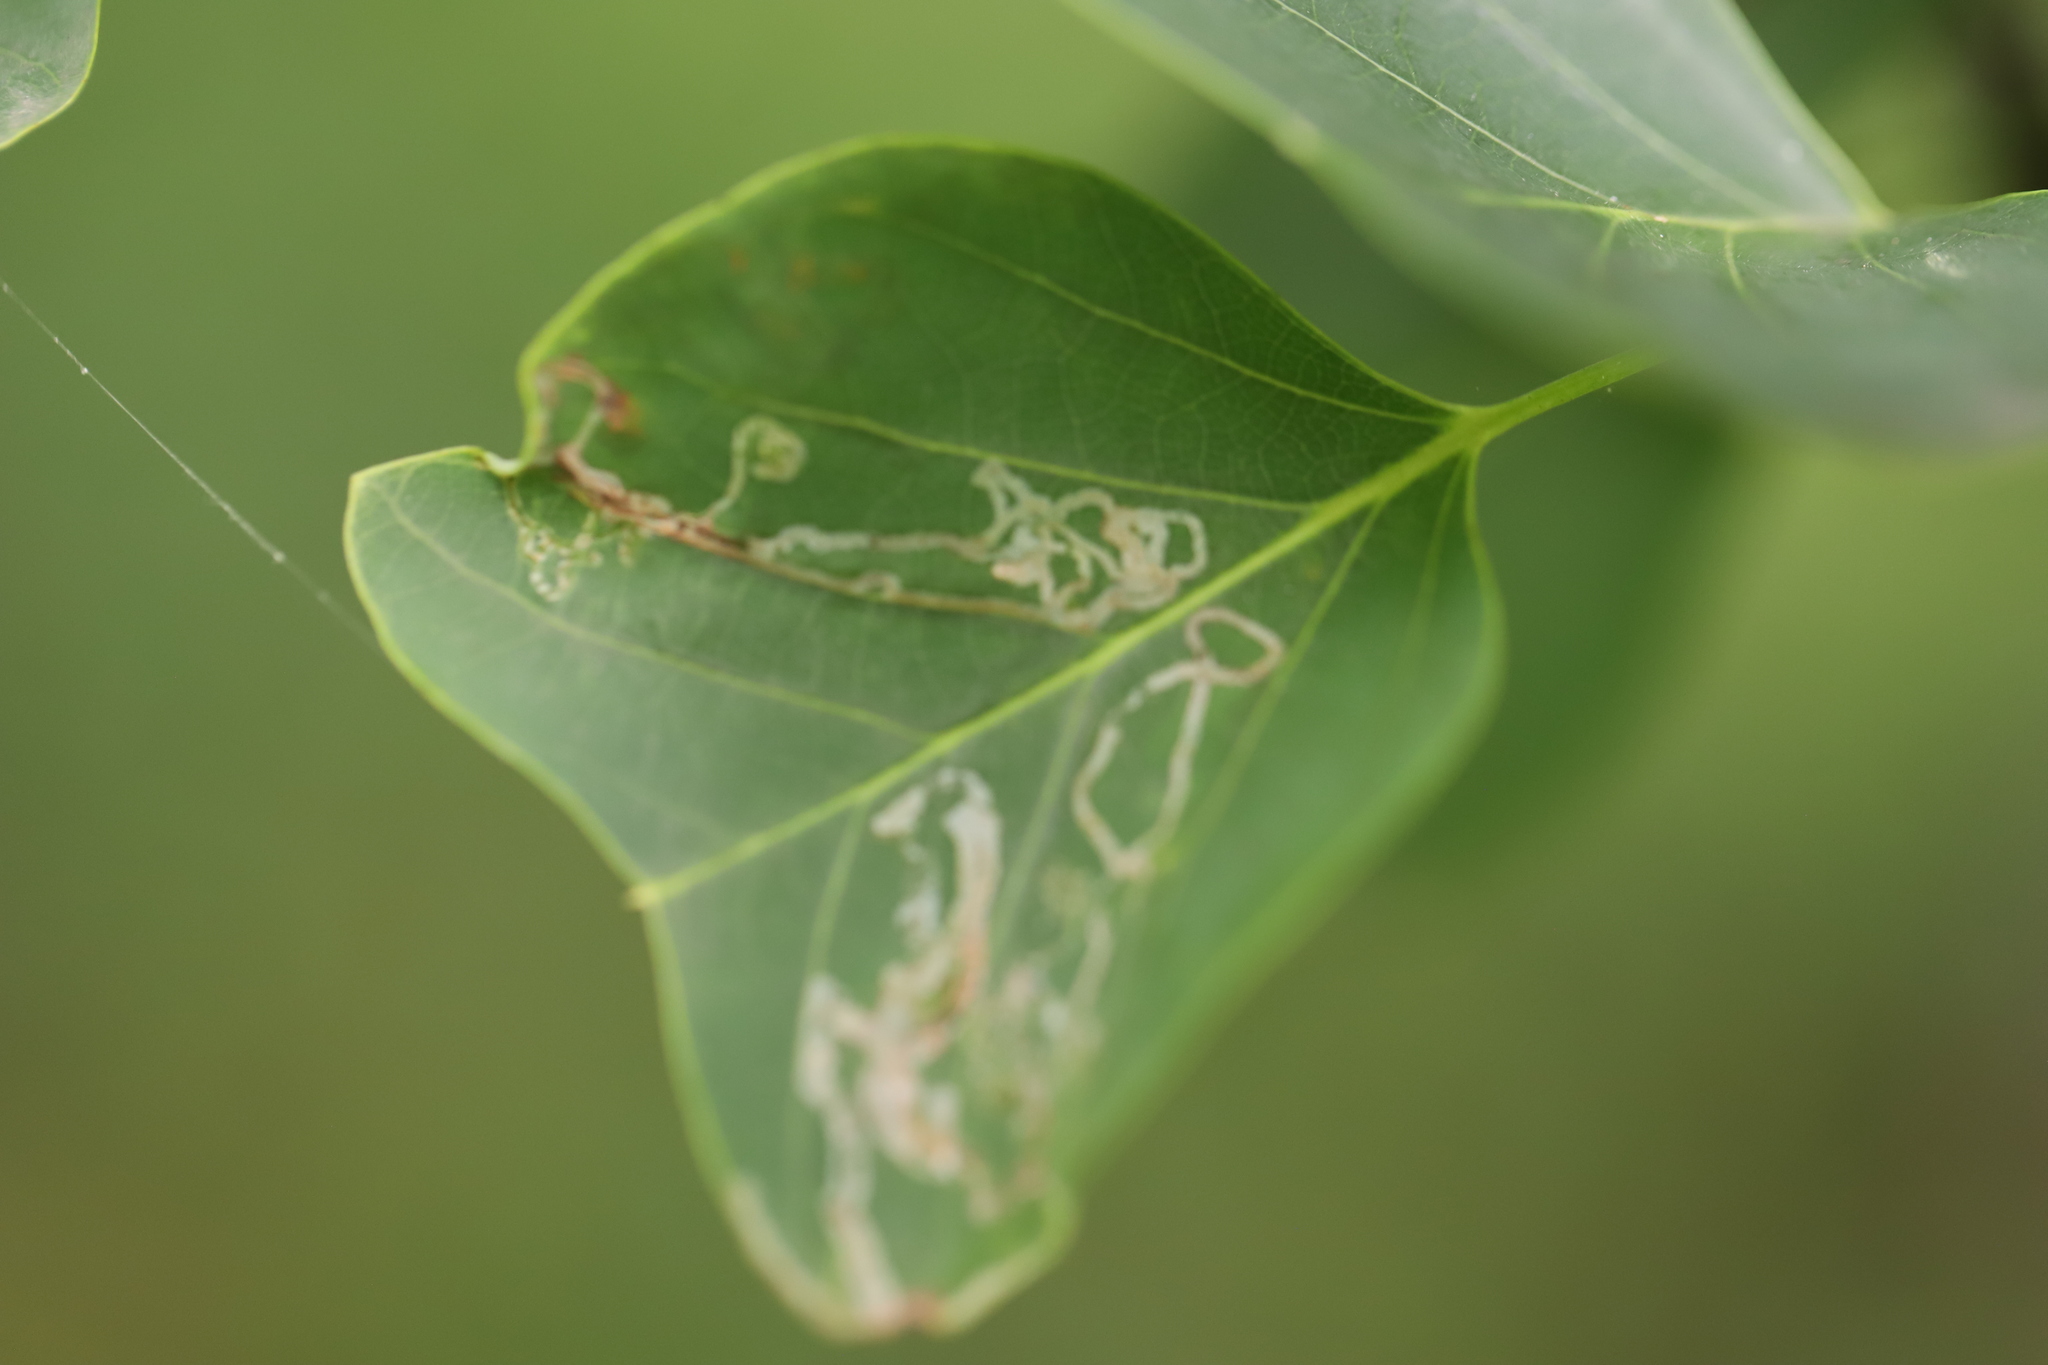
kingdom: Animalia
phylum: Arthropoda
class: Insecta
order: Lepidoptera
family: Gracillariidae
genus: Phyllocnistis
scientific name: Phyllocnistis liriodendronella
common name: Tulip tree leaf miner
